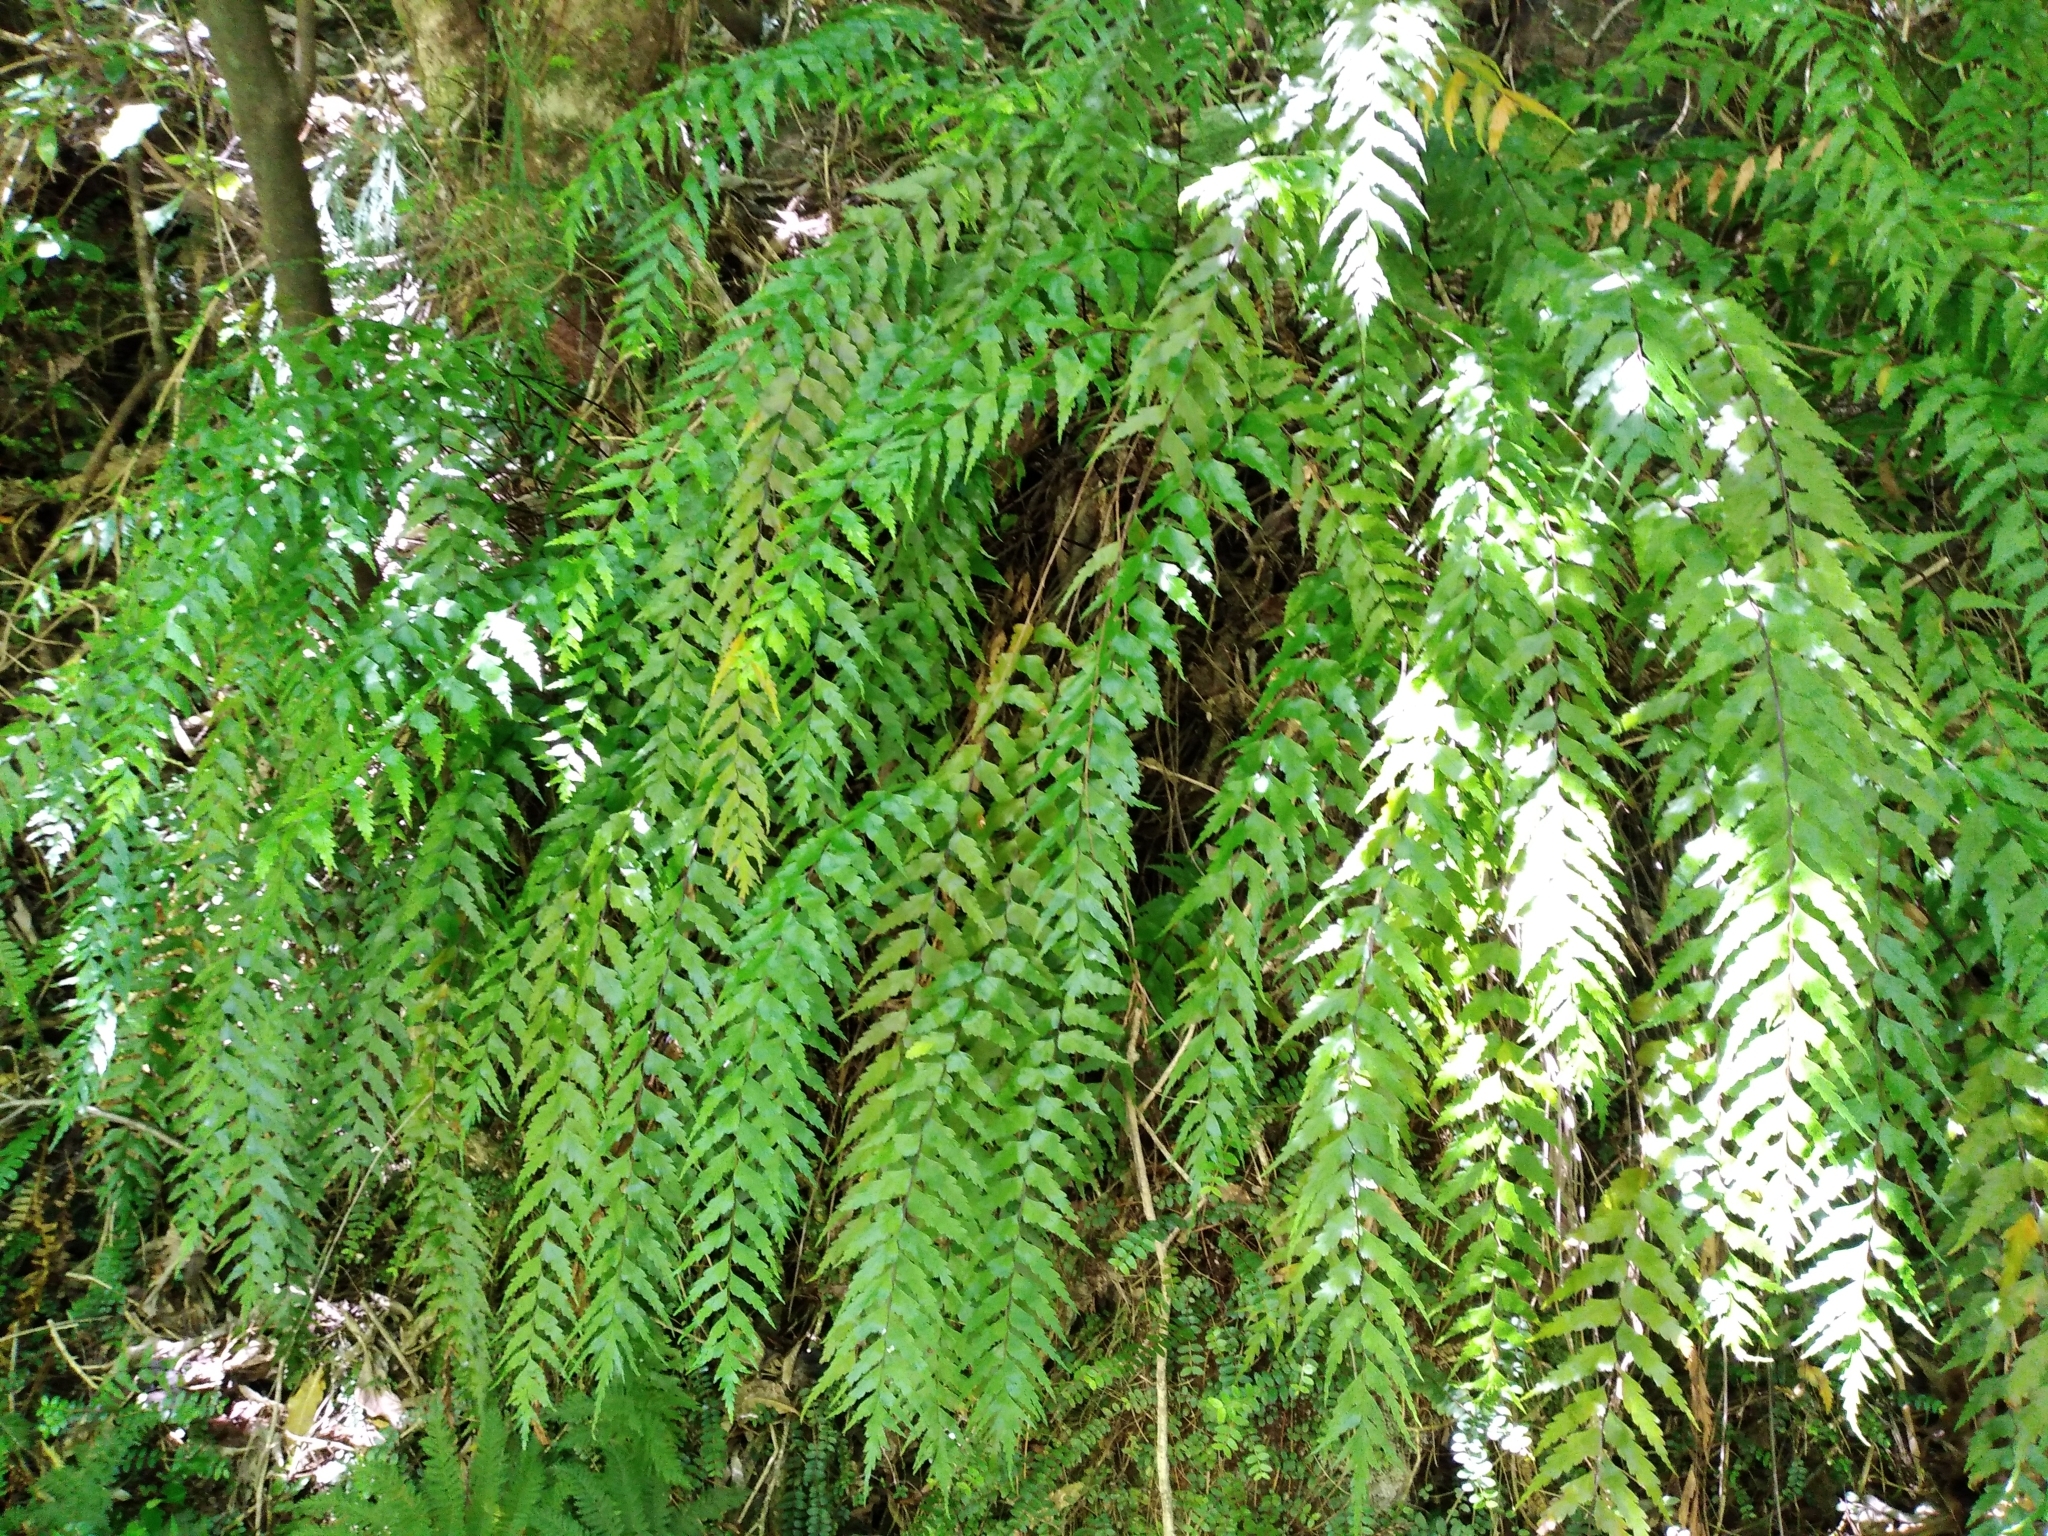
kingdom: Plantae
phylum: Tracheophyta
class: Polypodiopsida
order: Polypodiales
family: Aspleniaceae
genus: Asplenium
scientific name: Asplenium polyodon
